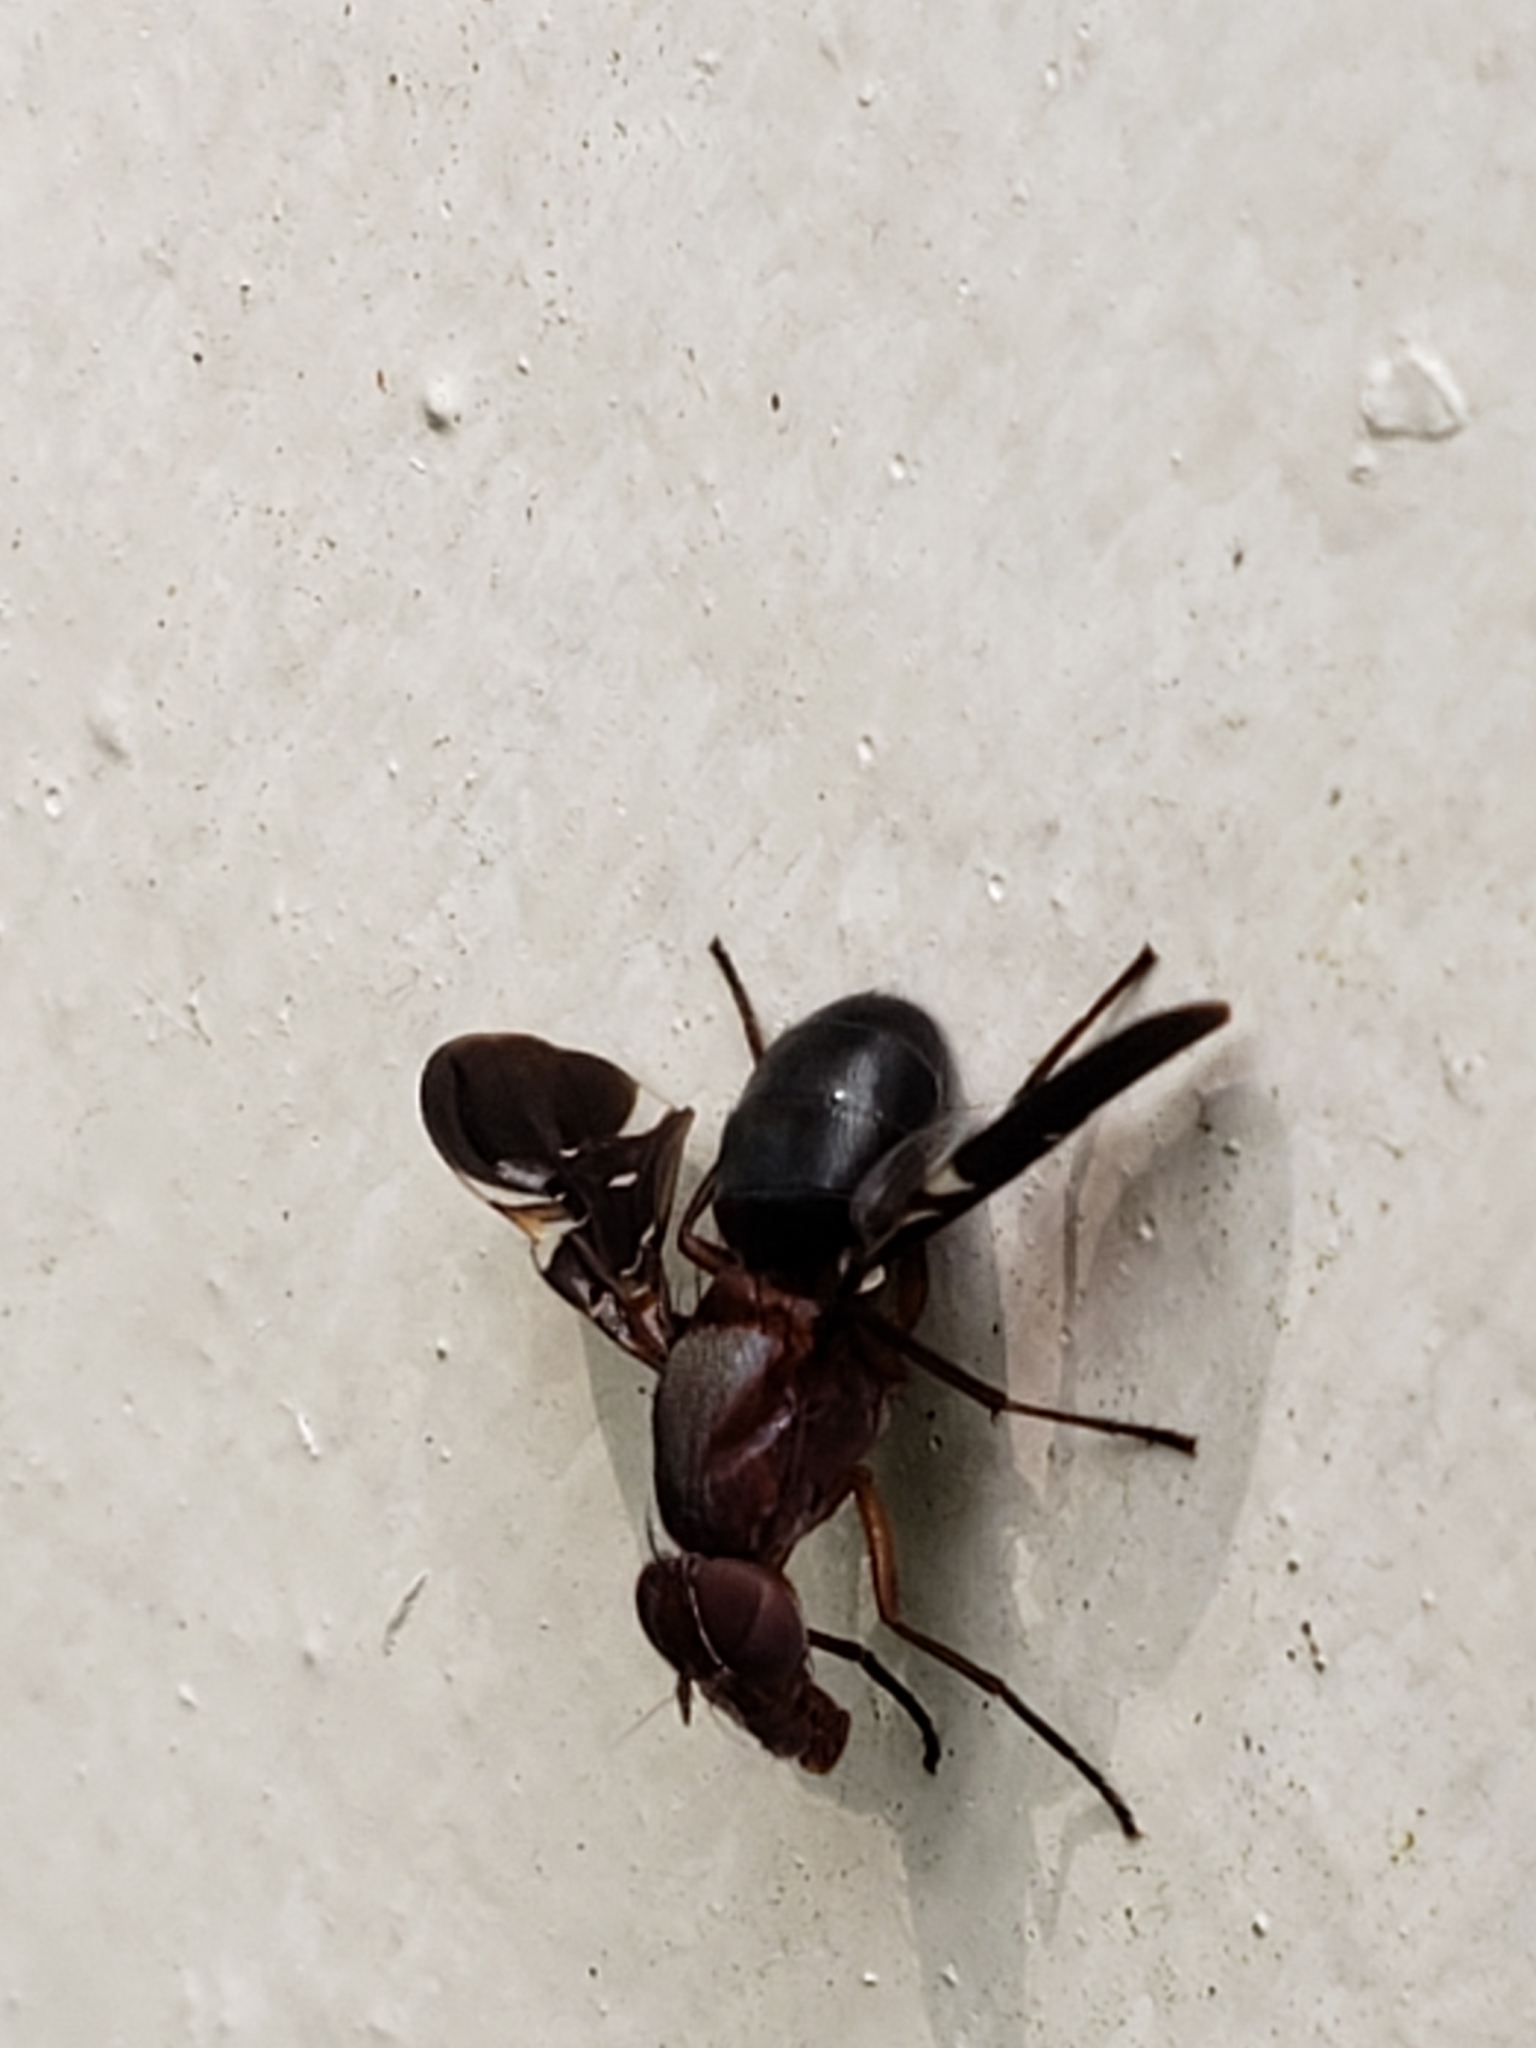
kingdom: Animalia
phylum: Arthropoda
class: Insecta
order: Diptera
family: Ulidiidae
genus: Delphinia
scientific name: Delphinia picta
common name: Common picture-winged fly
